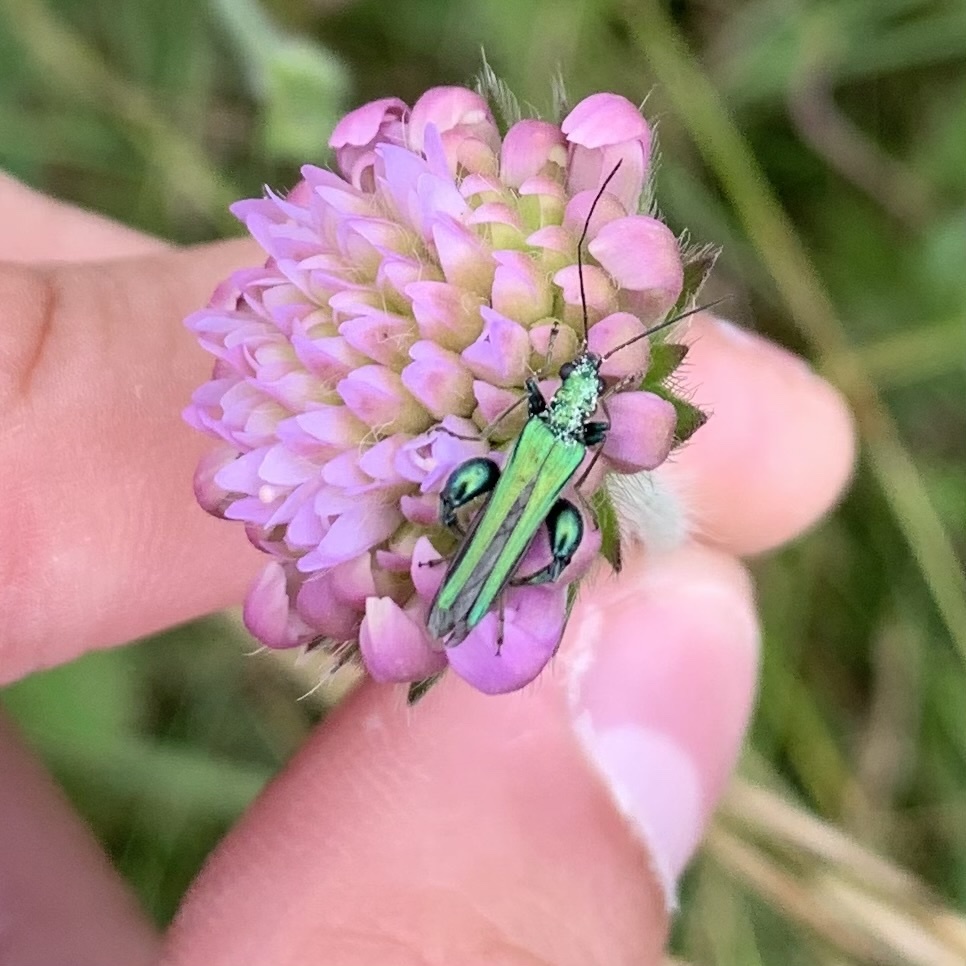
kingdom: Animalia
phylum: Arthropoda
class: Insecta
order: Coleoptera
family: Oedemeridae
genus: Oedemera
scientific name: Oedemera nobilis
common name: Swollen-thighed beetle
